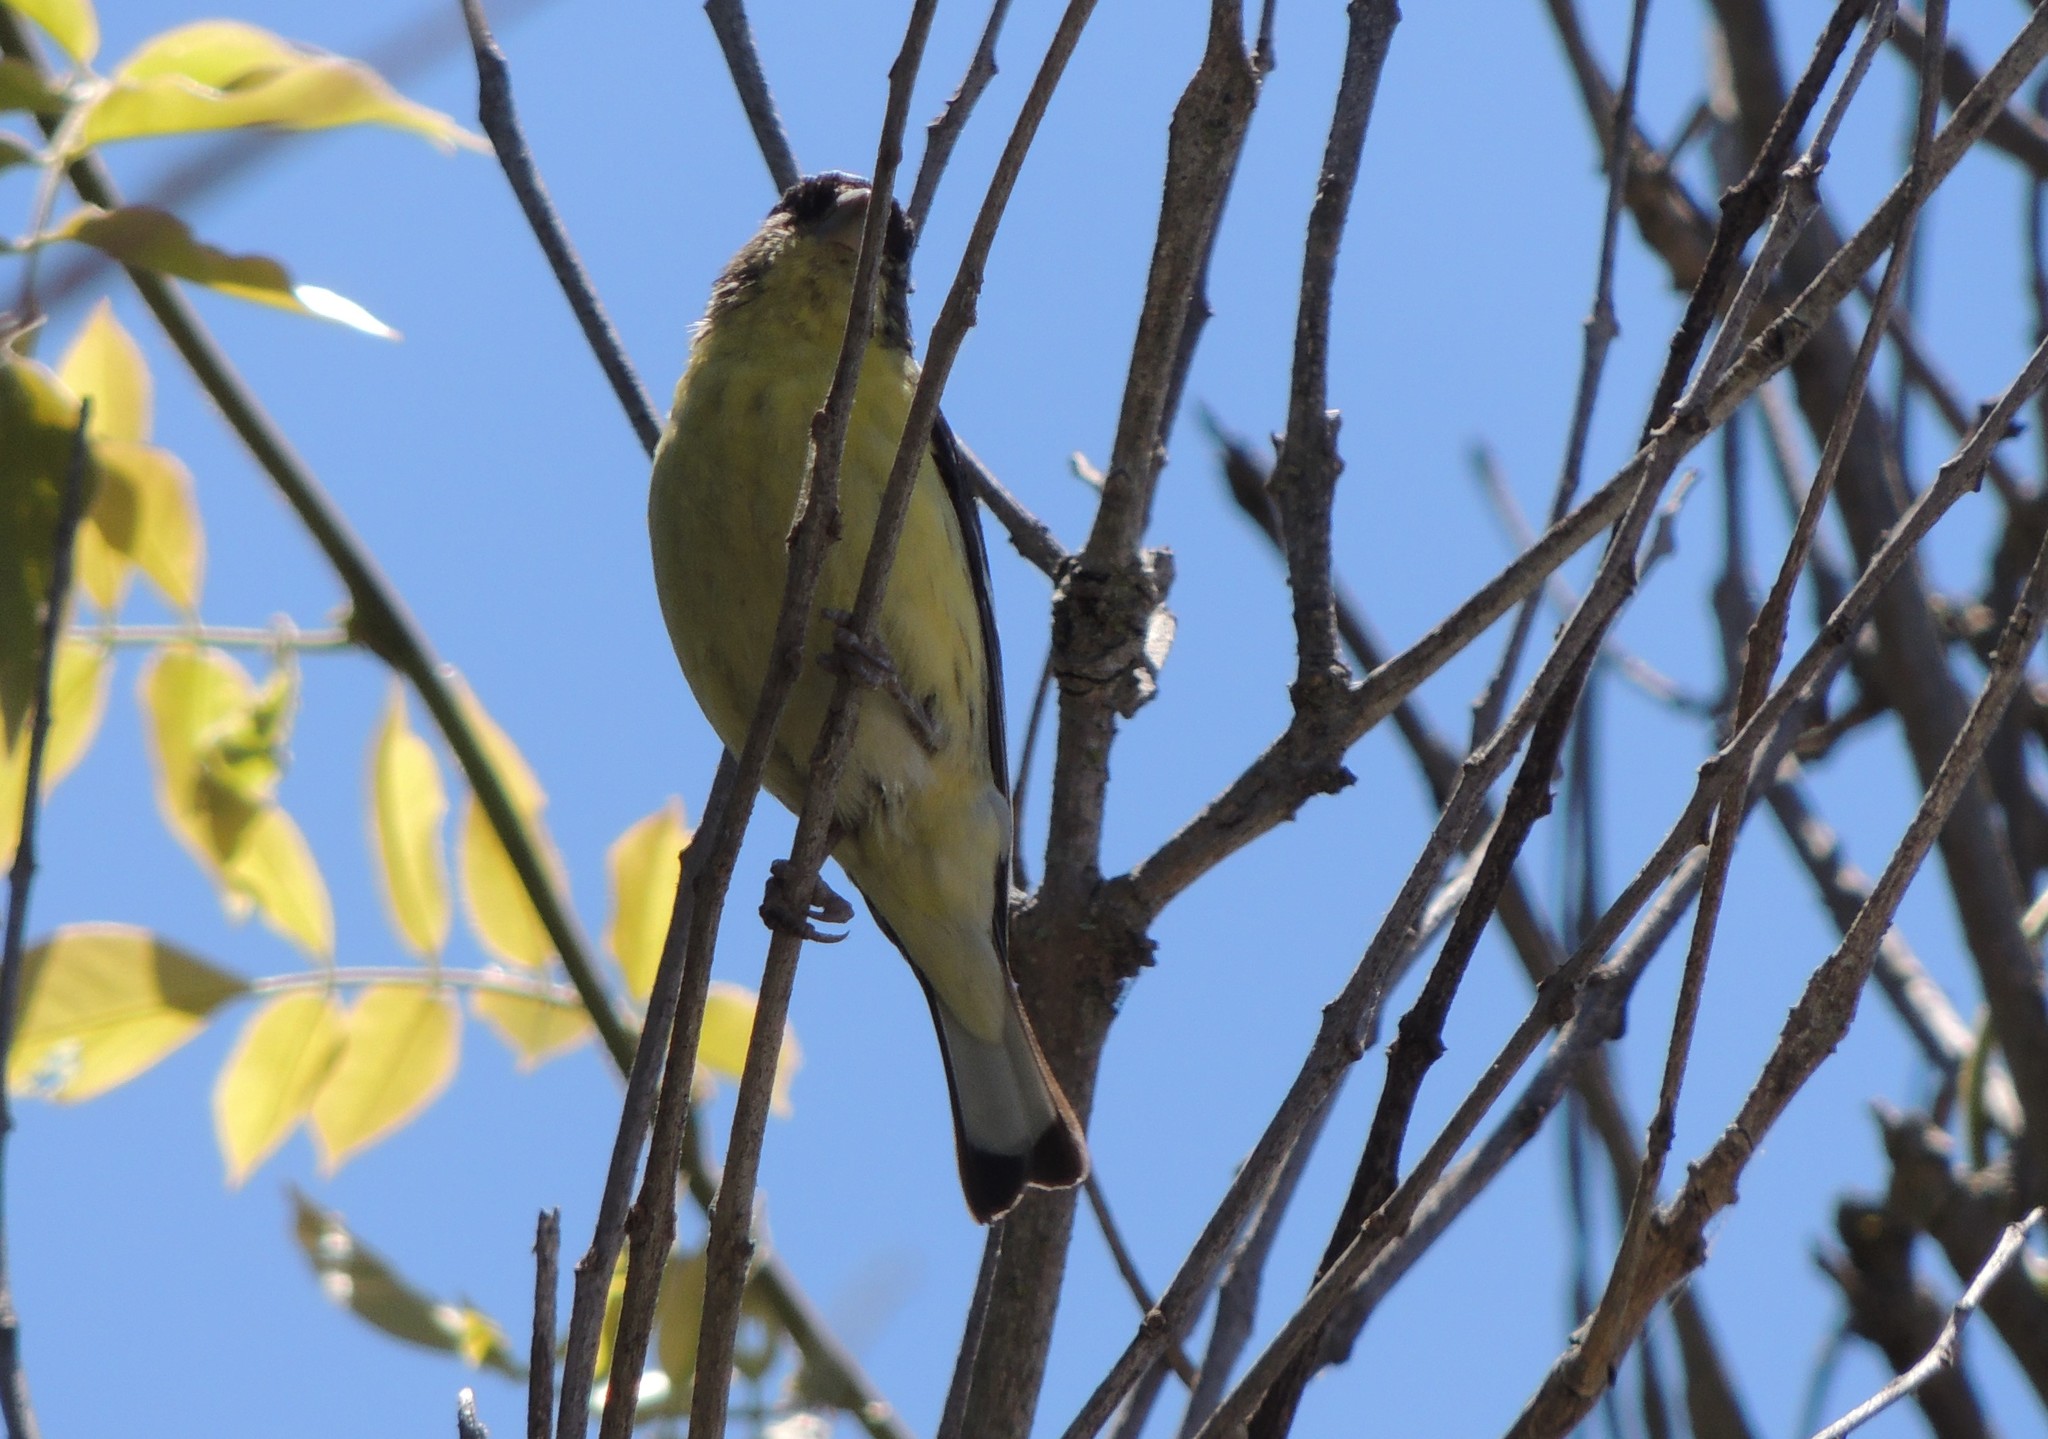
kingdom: Animalia
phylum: Chordata
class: Aves
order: Passeriformes
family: Fringillidae
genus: Spinus
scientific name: Spinus psaltria
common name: Lesser goldfinch
